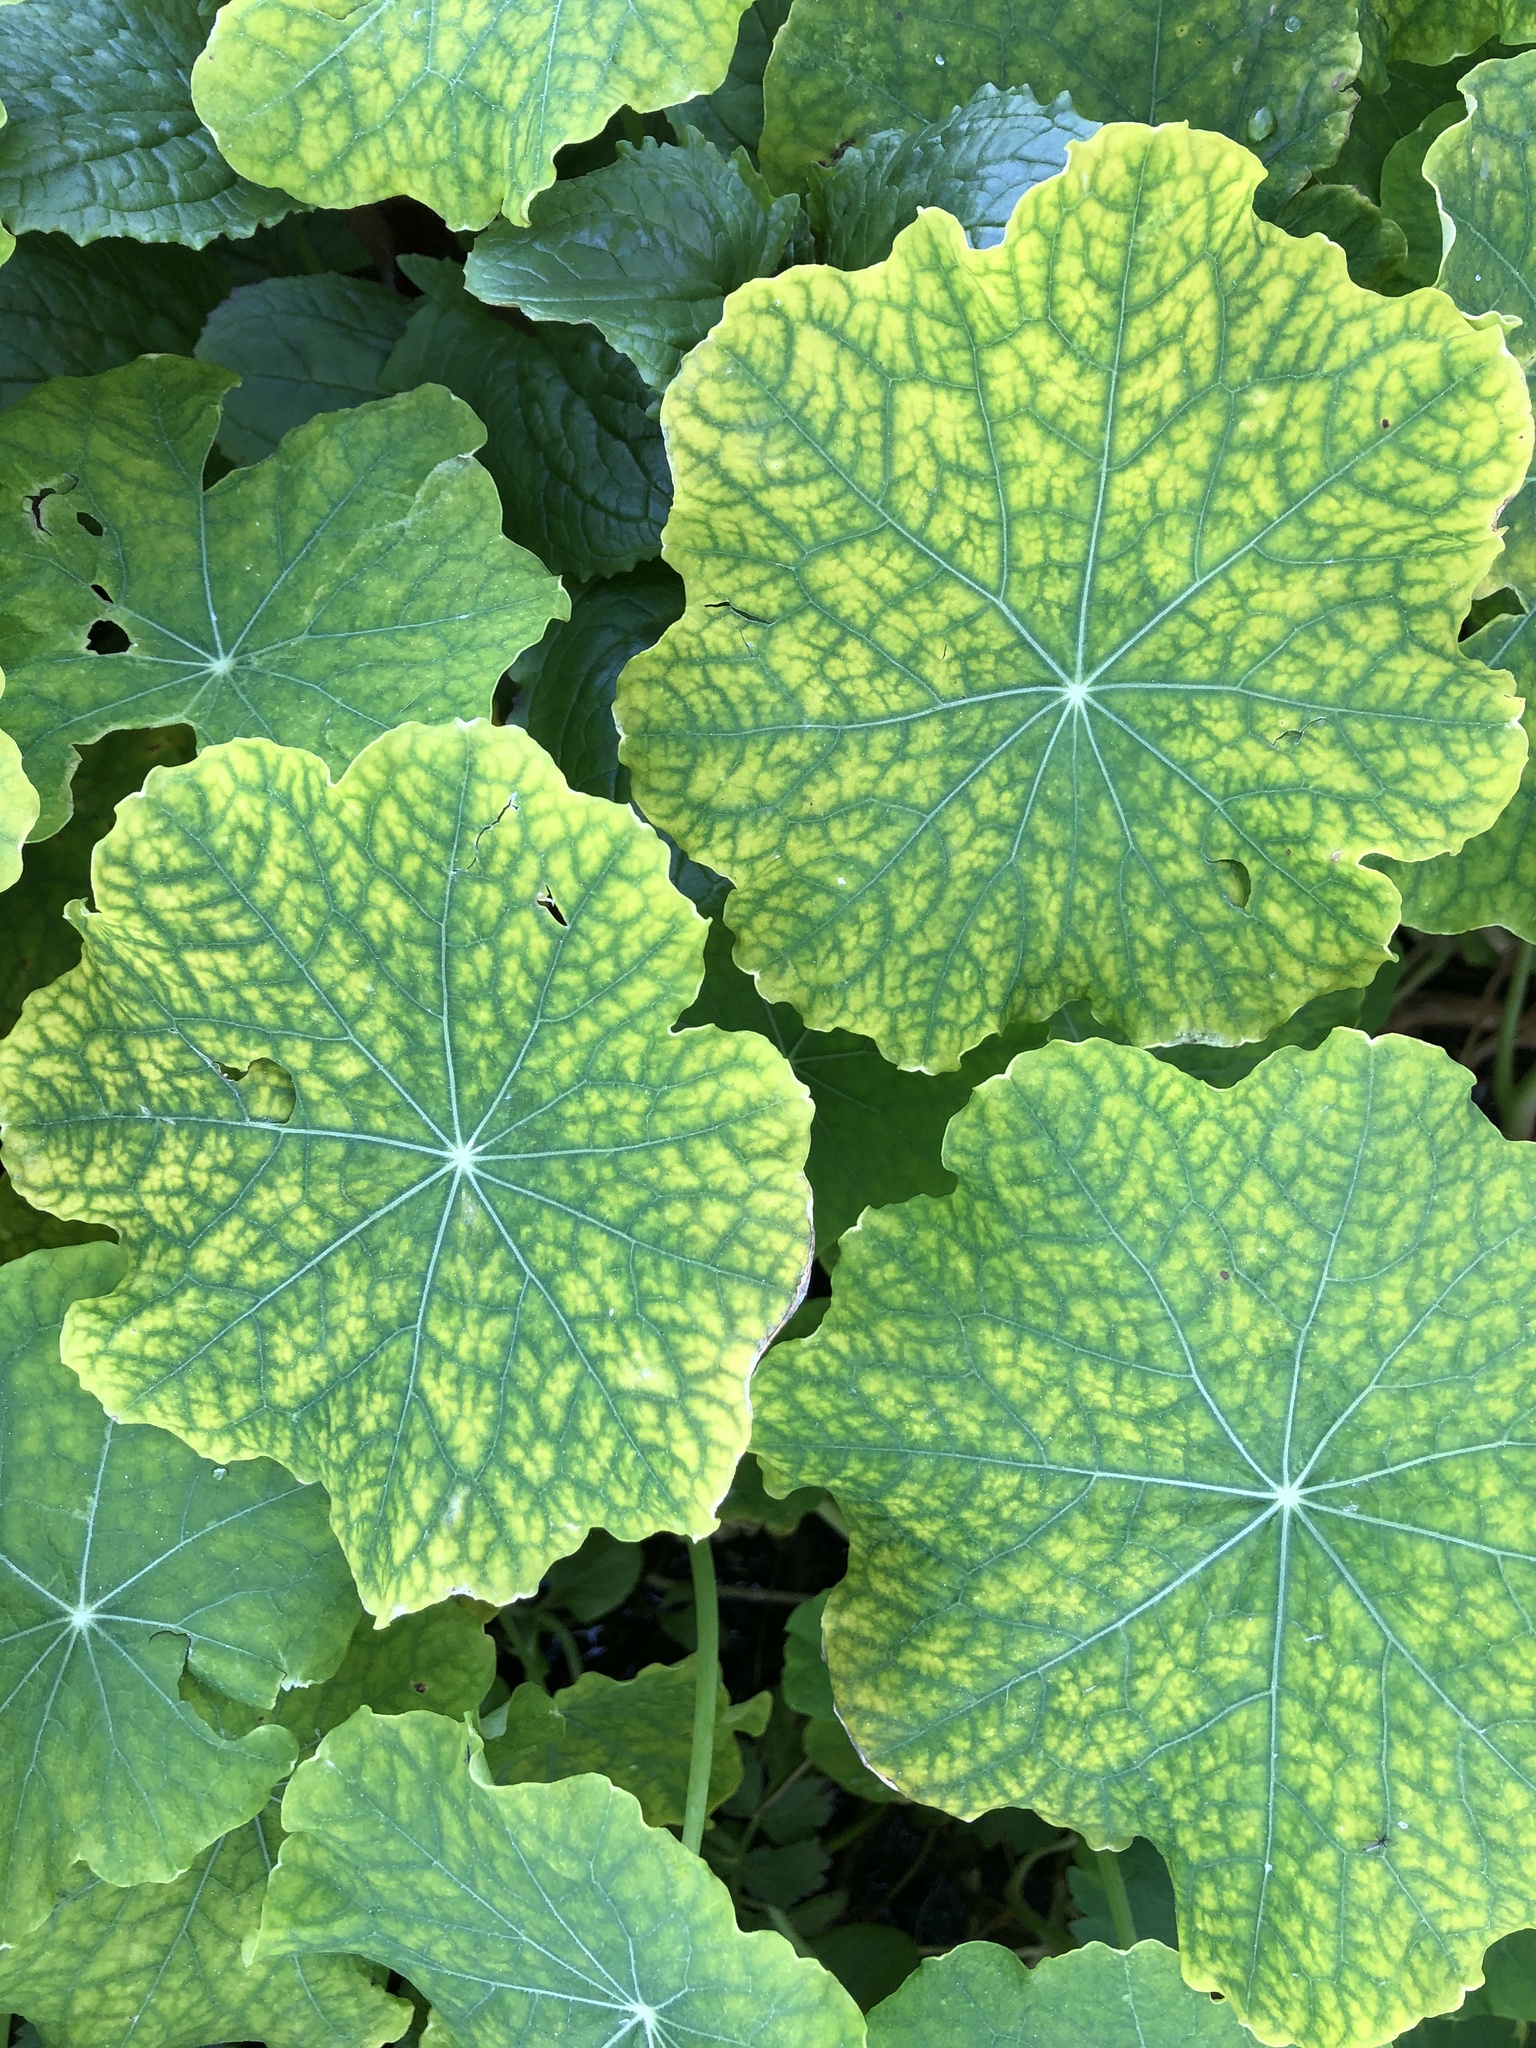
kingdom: Plantae
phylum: Tracheophyta
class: Magnoliopsida
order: Brassicales
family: Tropaeolaceae
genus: Tropaeolum
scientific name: Tropaeolum majus
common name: Nasturtium
